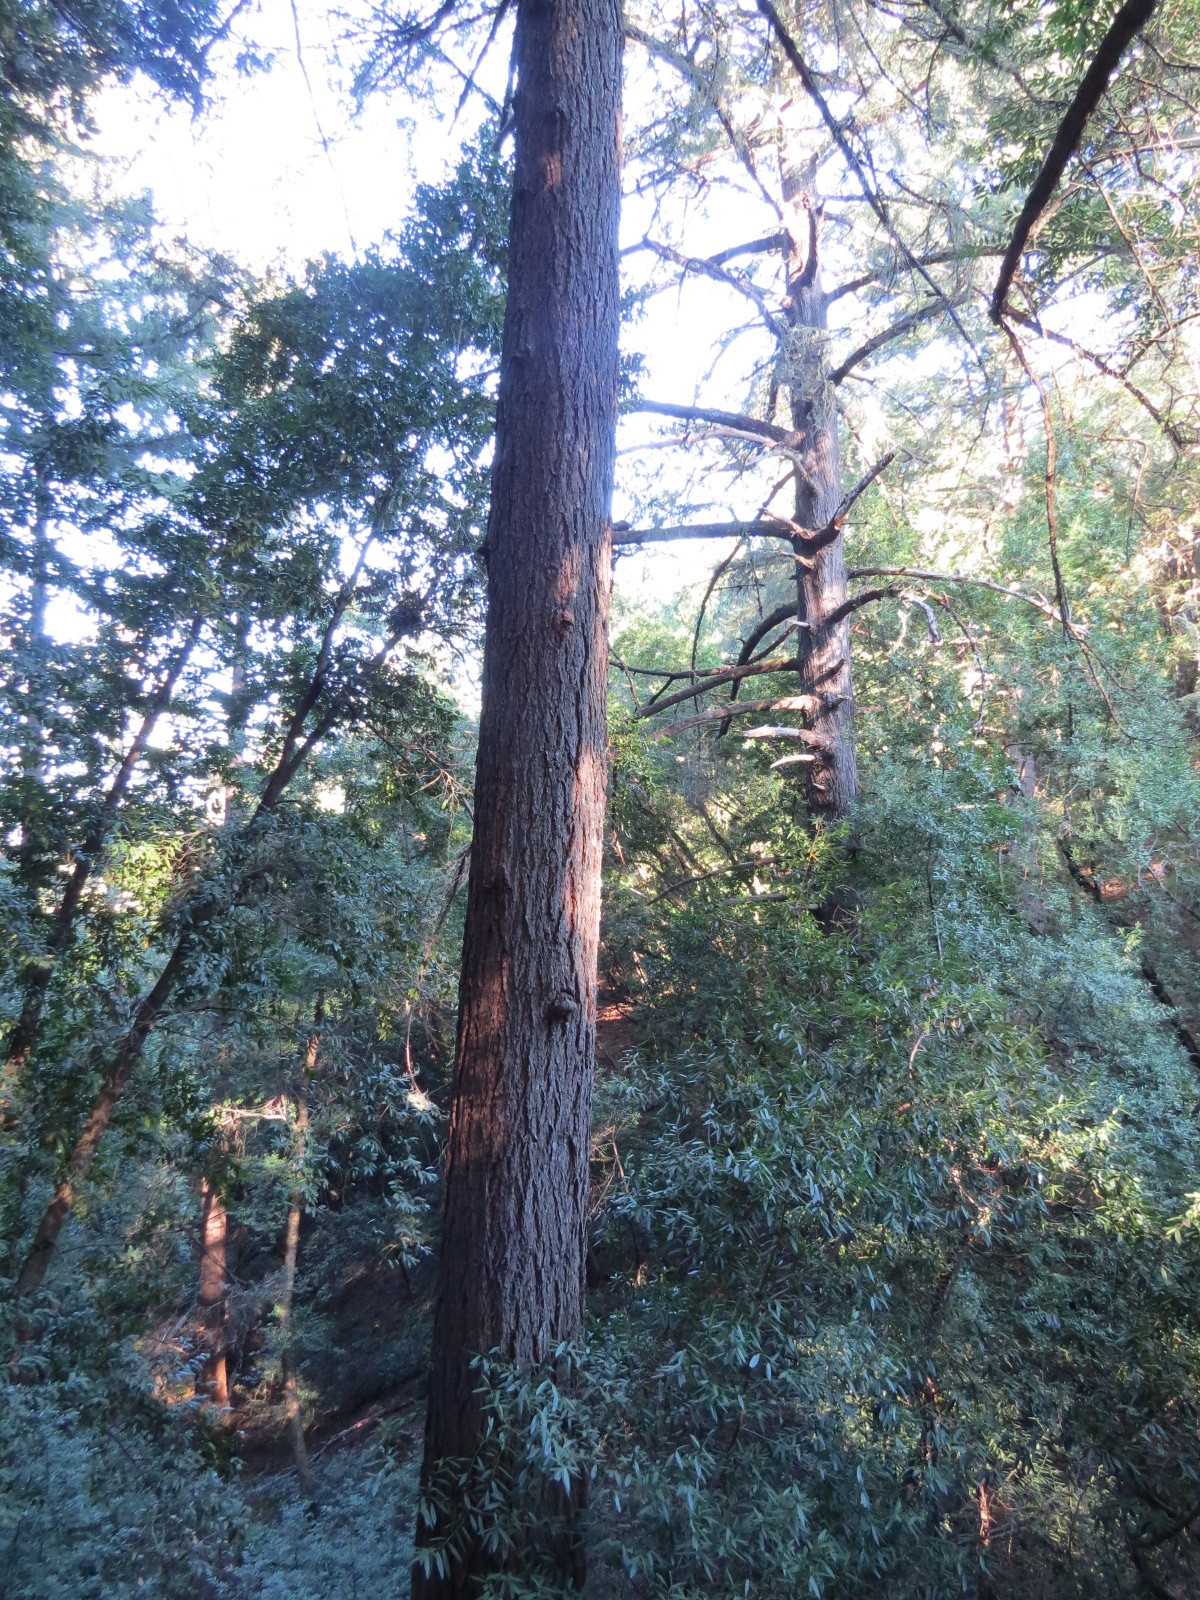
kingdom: Fungi
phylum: Basidiomycota
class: Agaricomycetes
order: Hymenochaetales
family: Hymenochaetaceae
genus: Porodaedalea
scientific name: Porodaedalea pini
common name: Pine bracket
